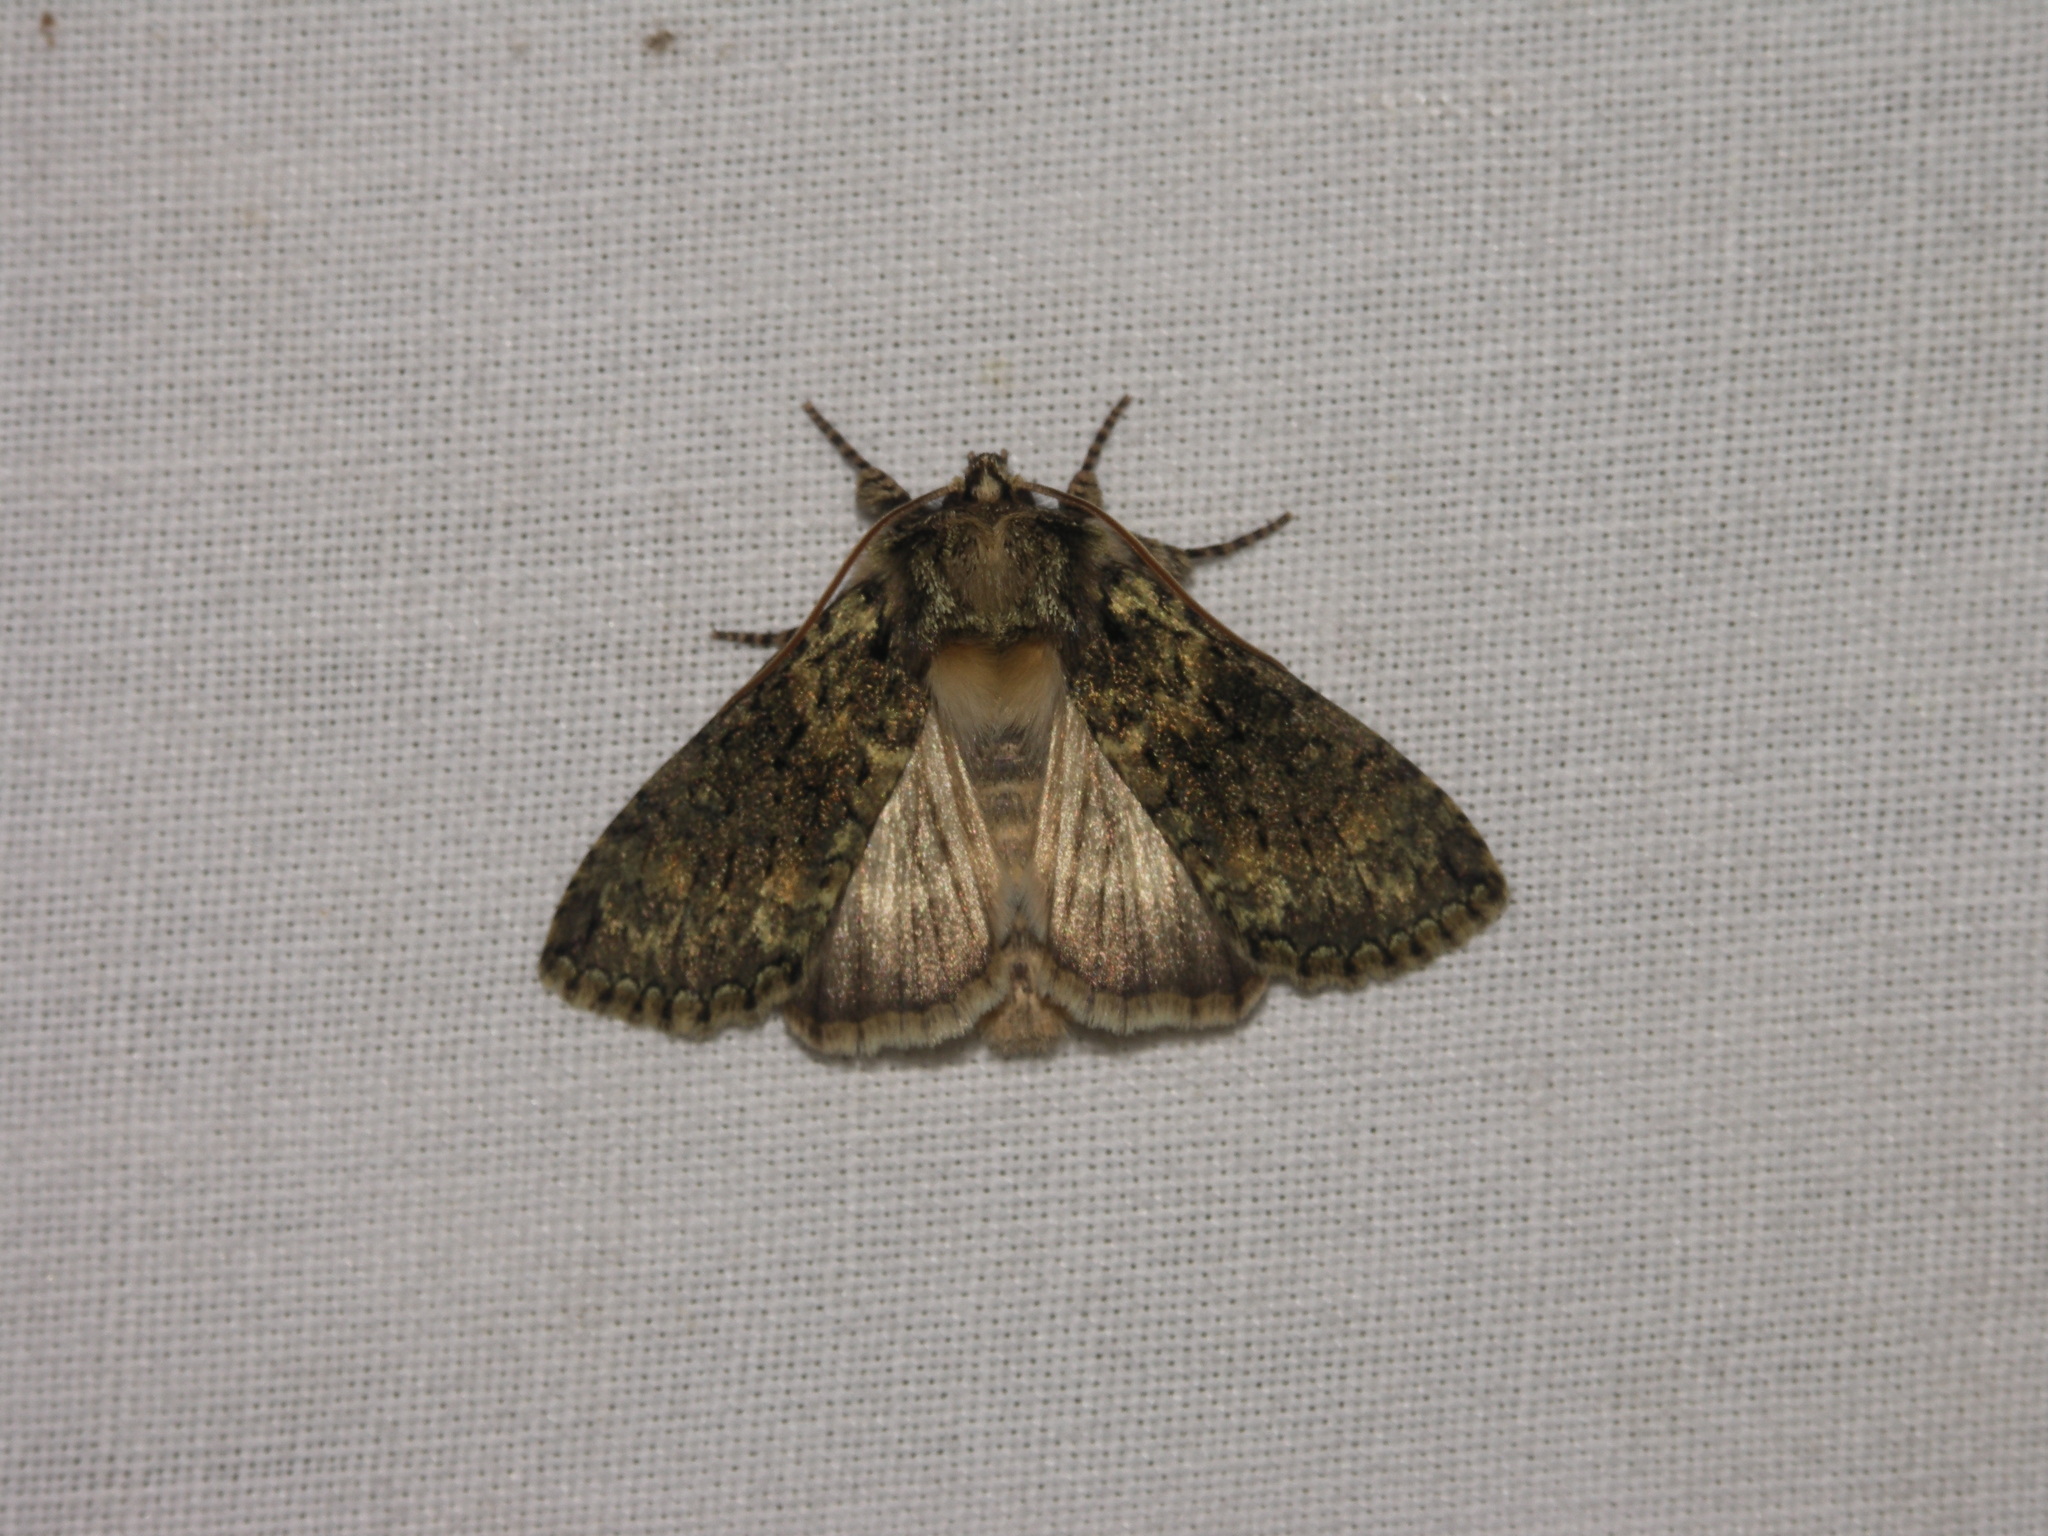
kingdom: Animalia
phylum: Arthropoda
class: Insecta
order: Lepidoptera
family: Drepanidae
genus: Polyploca
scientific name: Polyploca ridens
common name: Frosted green
